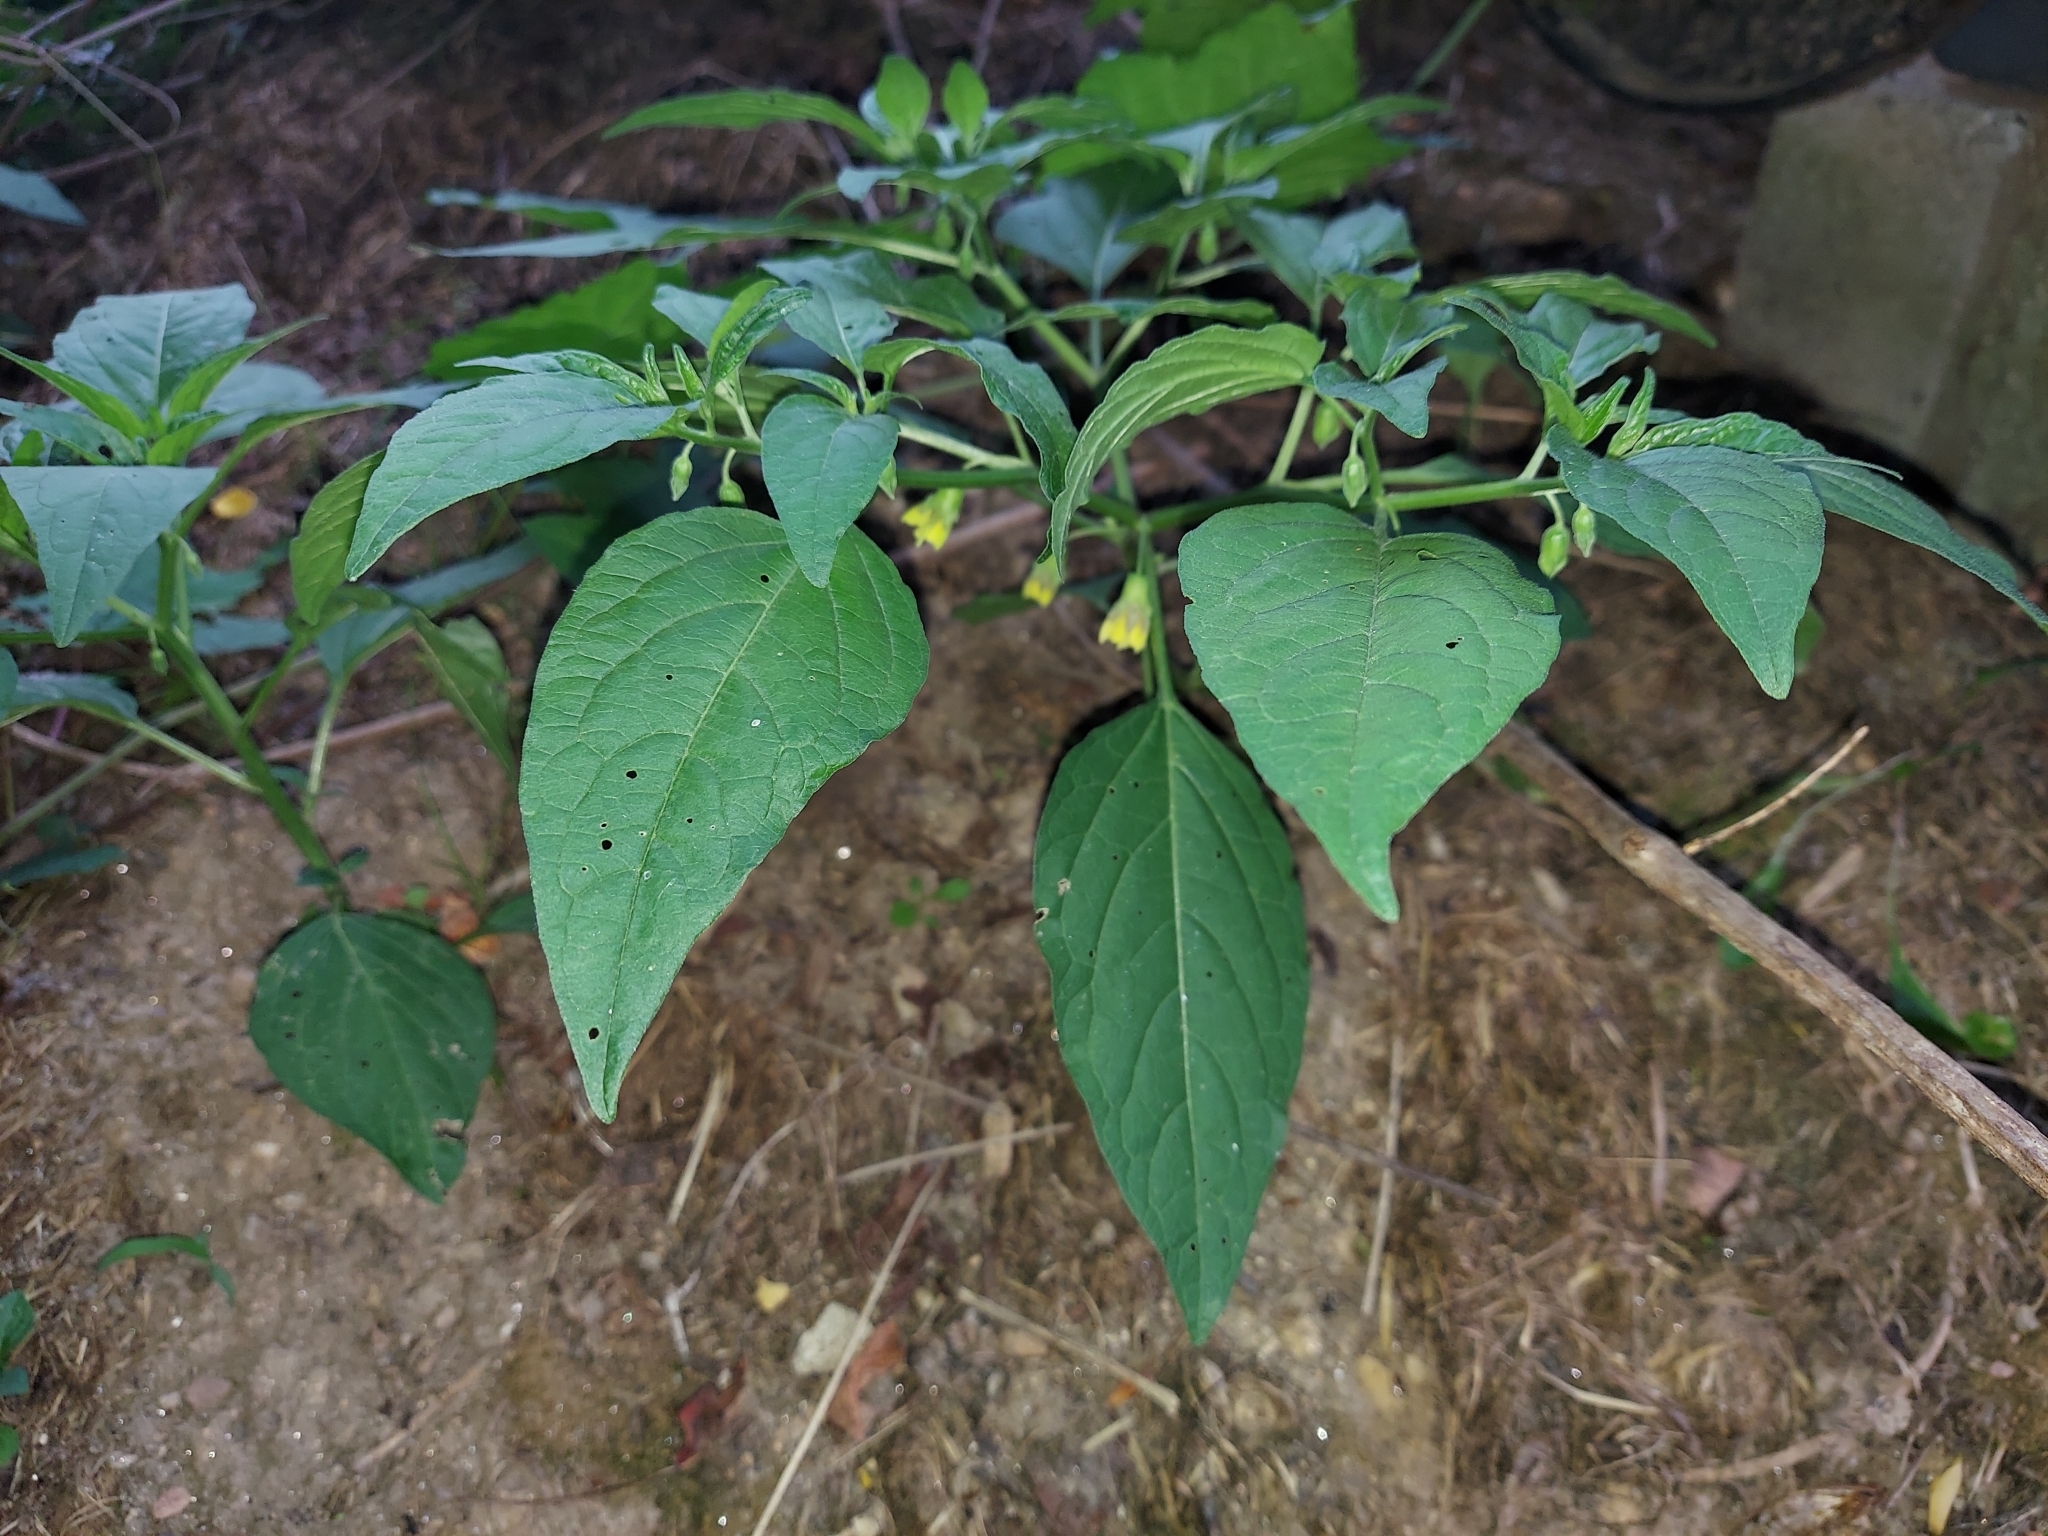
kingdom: Plantae
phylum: Tracheophyta
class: Magnoliopsida
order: Solanales
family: Solanaceae
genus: Physalis
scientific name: Physalis longifolia
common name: Common ground-cherry
